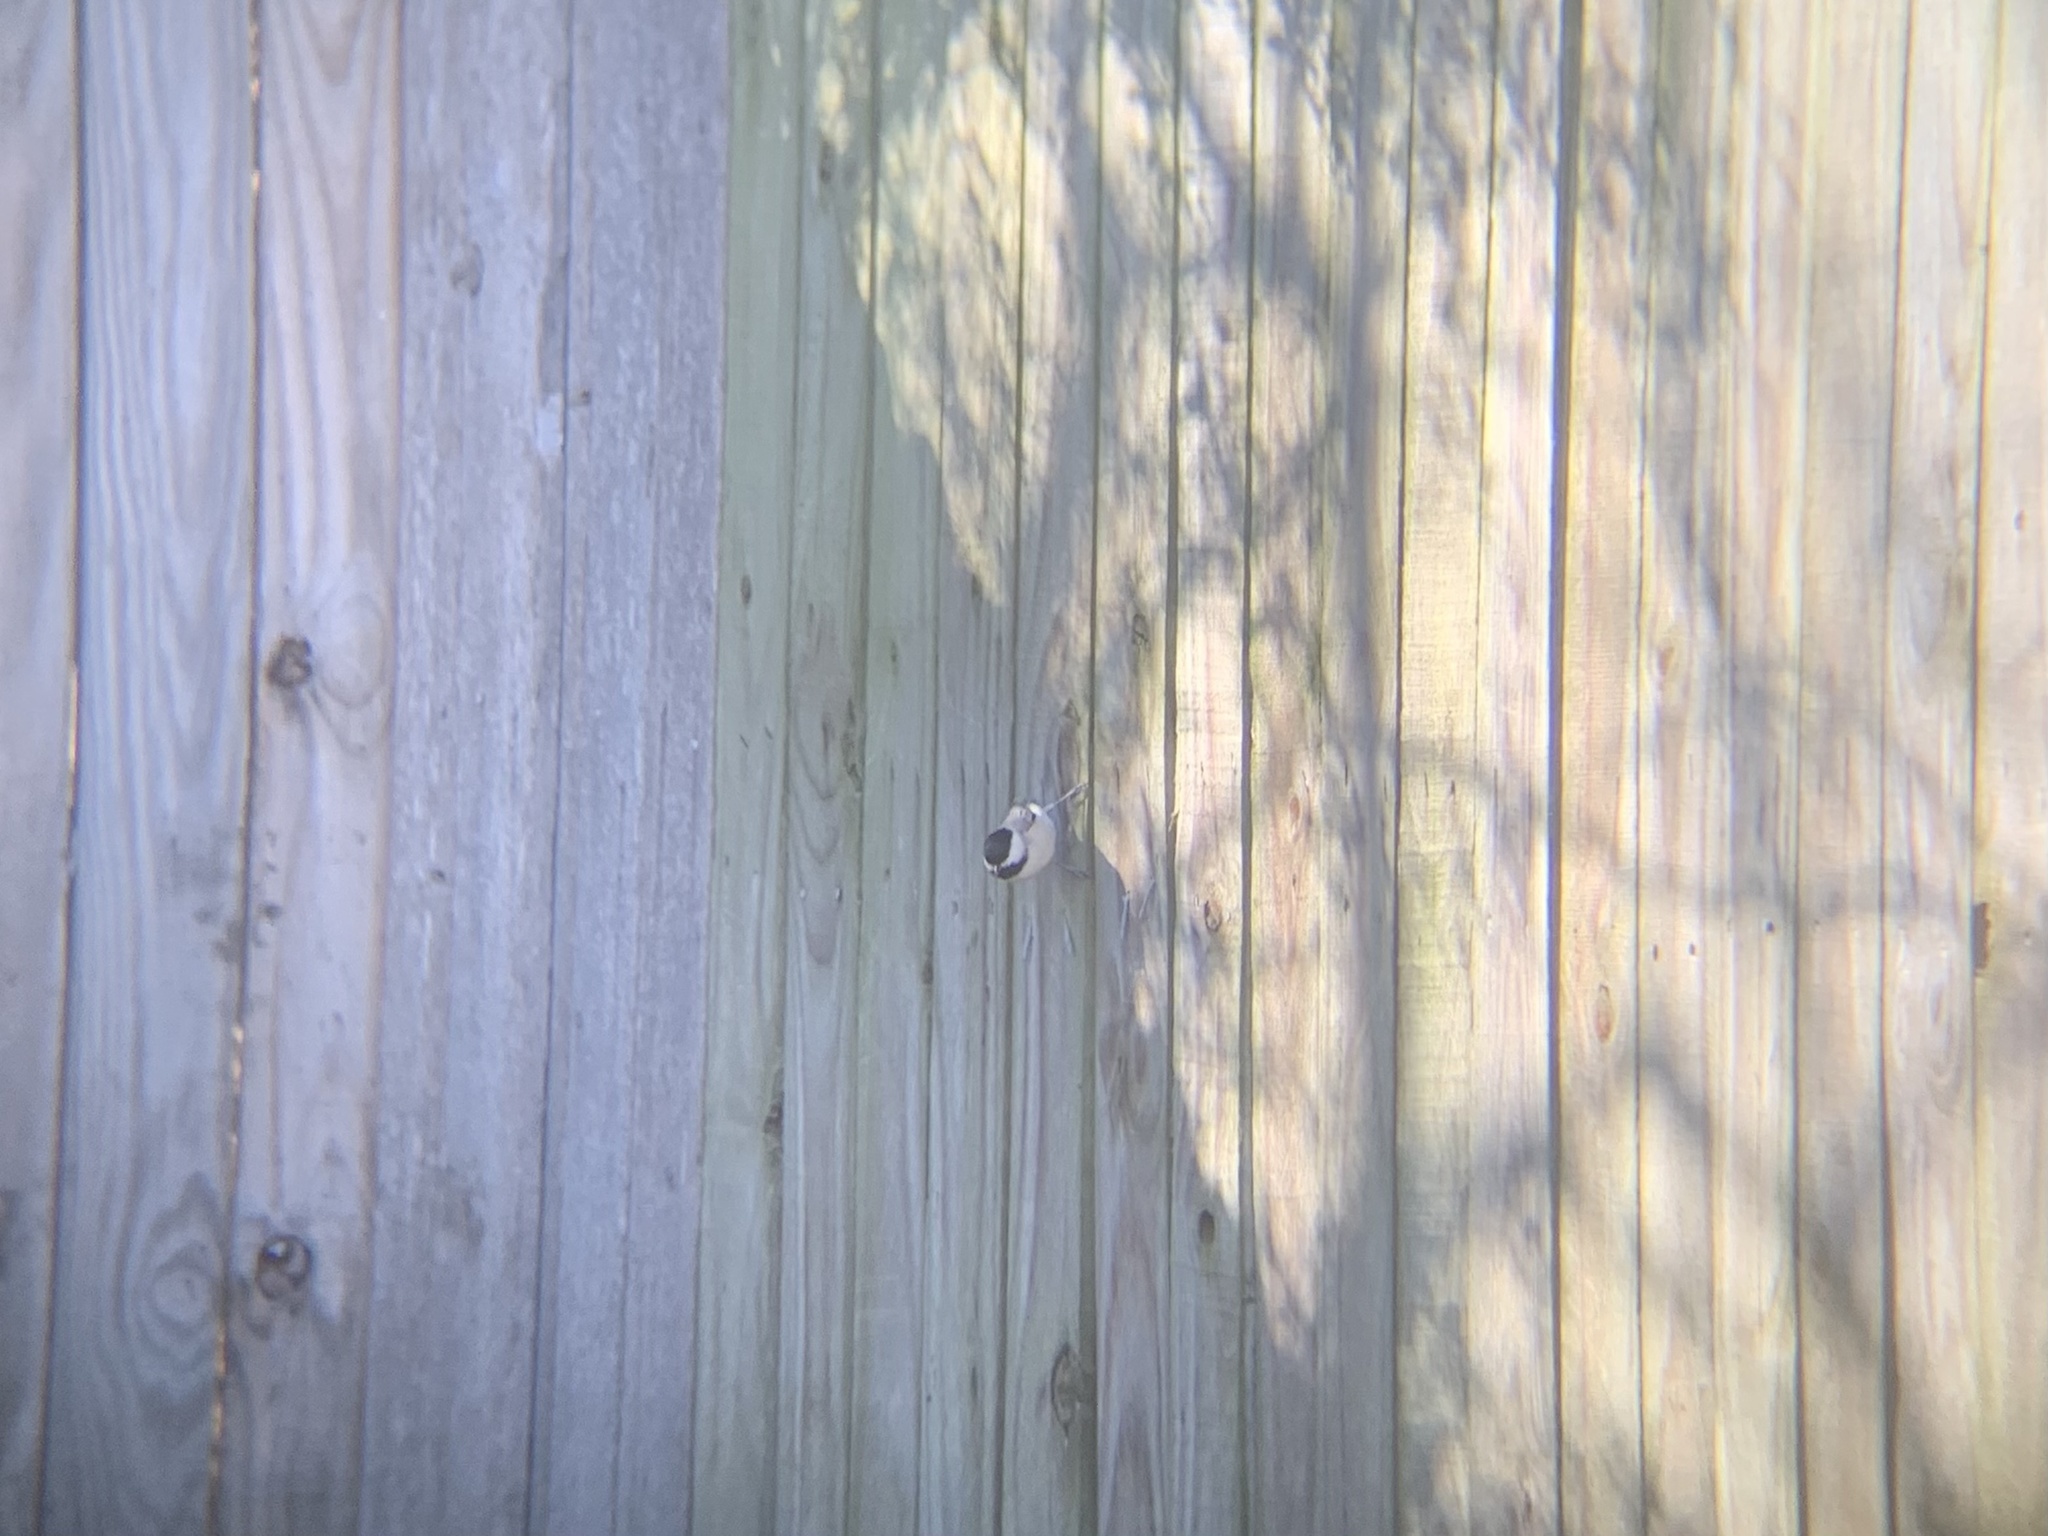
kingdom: Animalia
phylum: Chordata
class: Aves
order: Passeriformes
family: Paridae
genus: Poecile
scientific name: Poecile carolinensis
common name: Carolina chickadee
